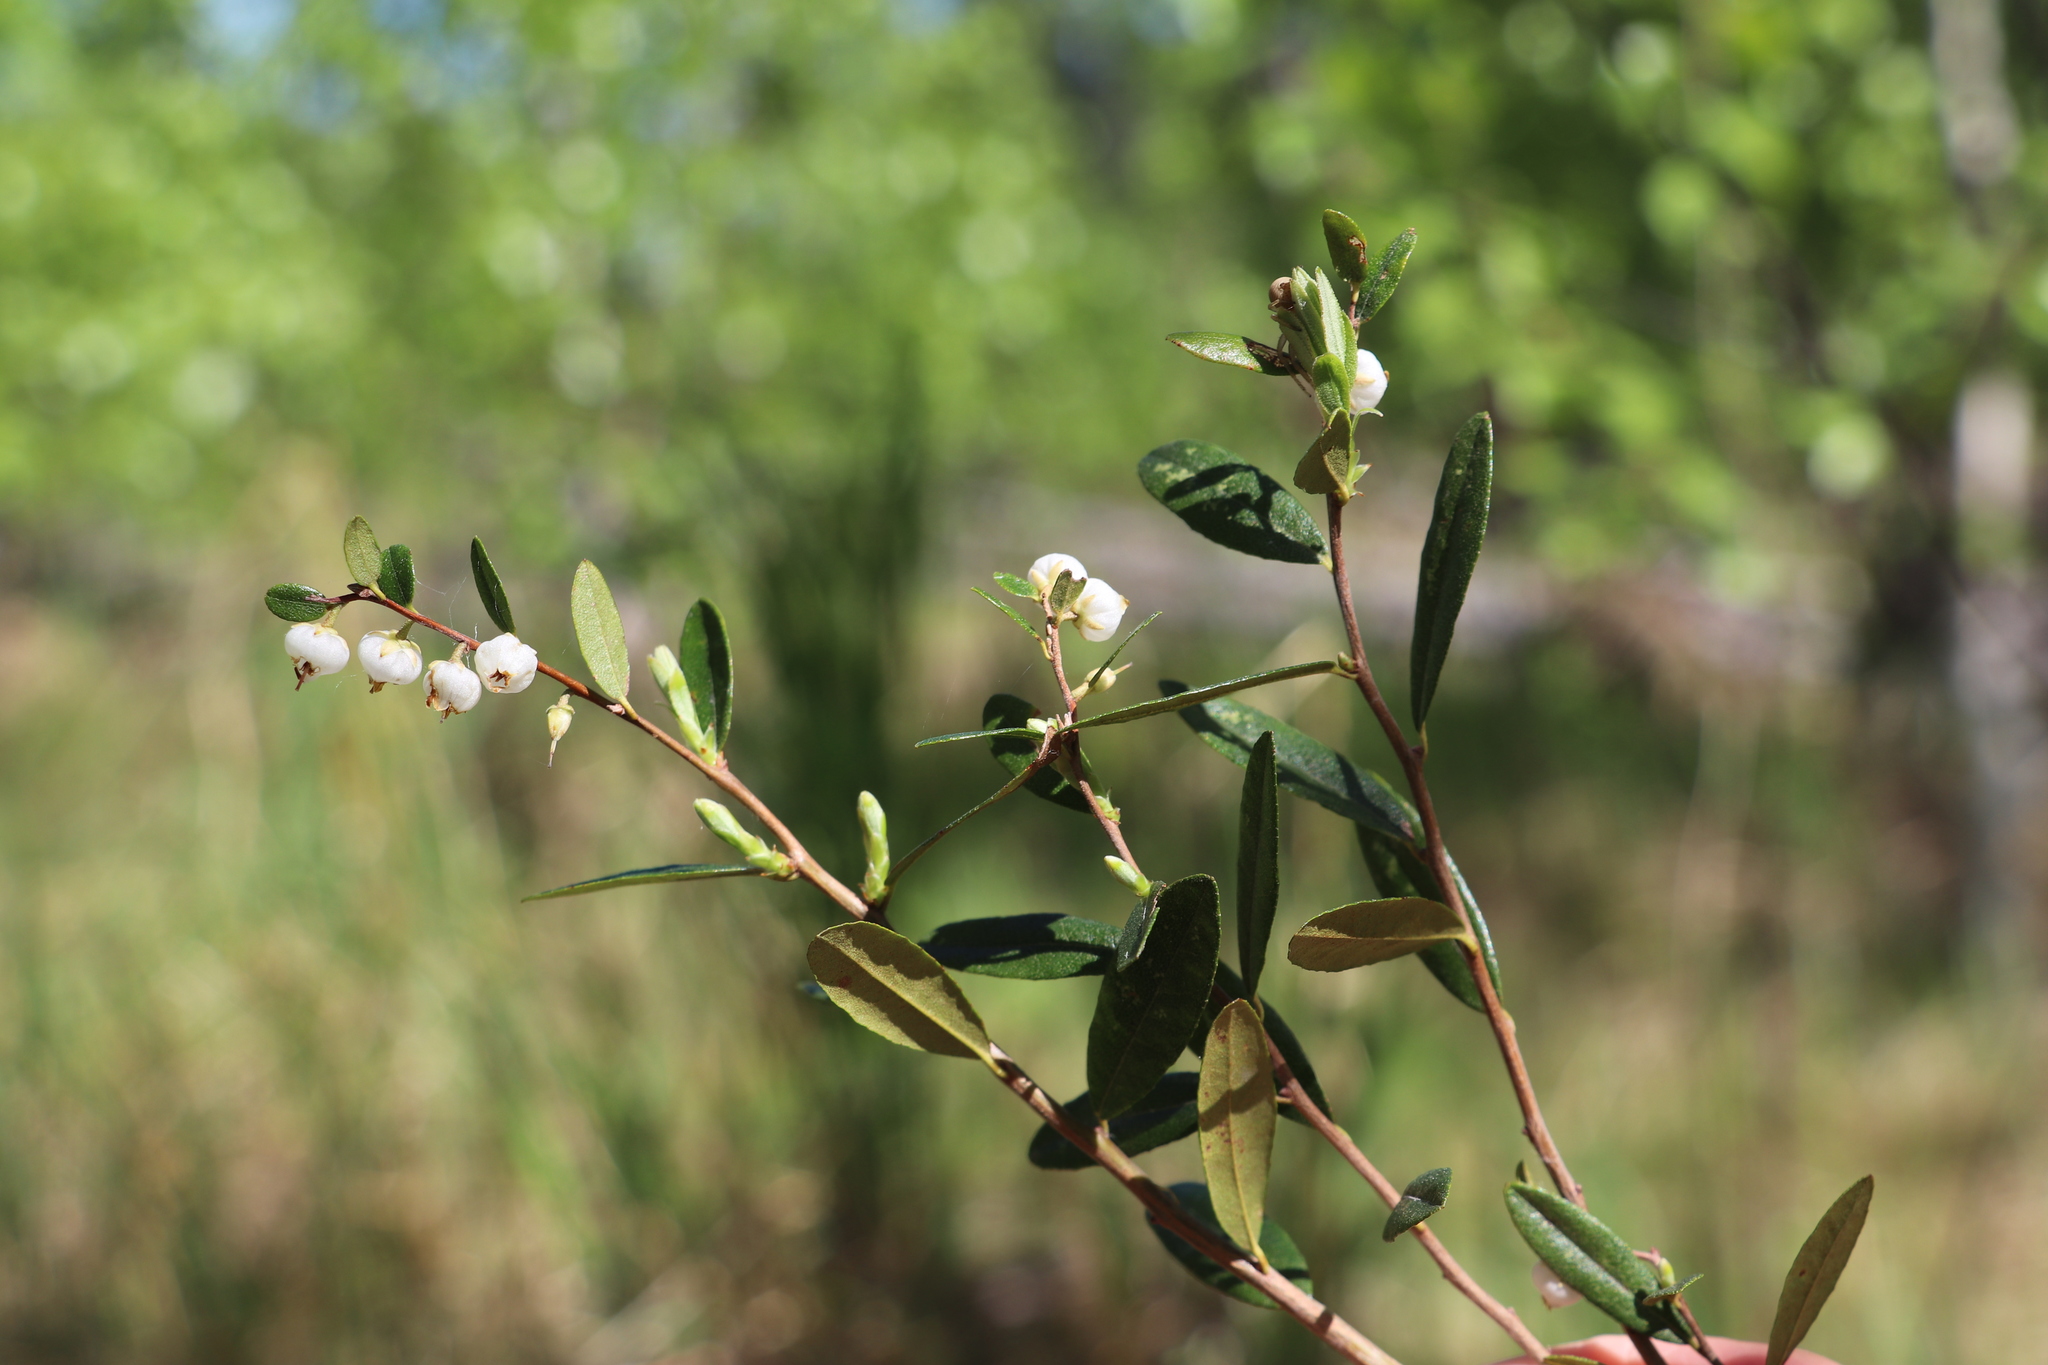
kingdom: Plantae
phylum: Tracheophyta
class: Magnoliopsida
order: Ericales
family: Ericaceae
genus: Chamaedaphne
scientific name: Chamaedaphne calyculata
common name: Leatherleaf
